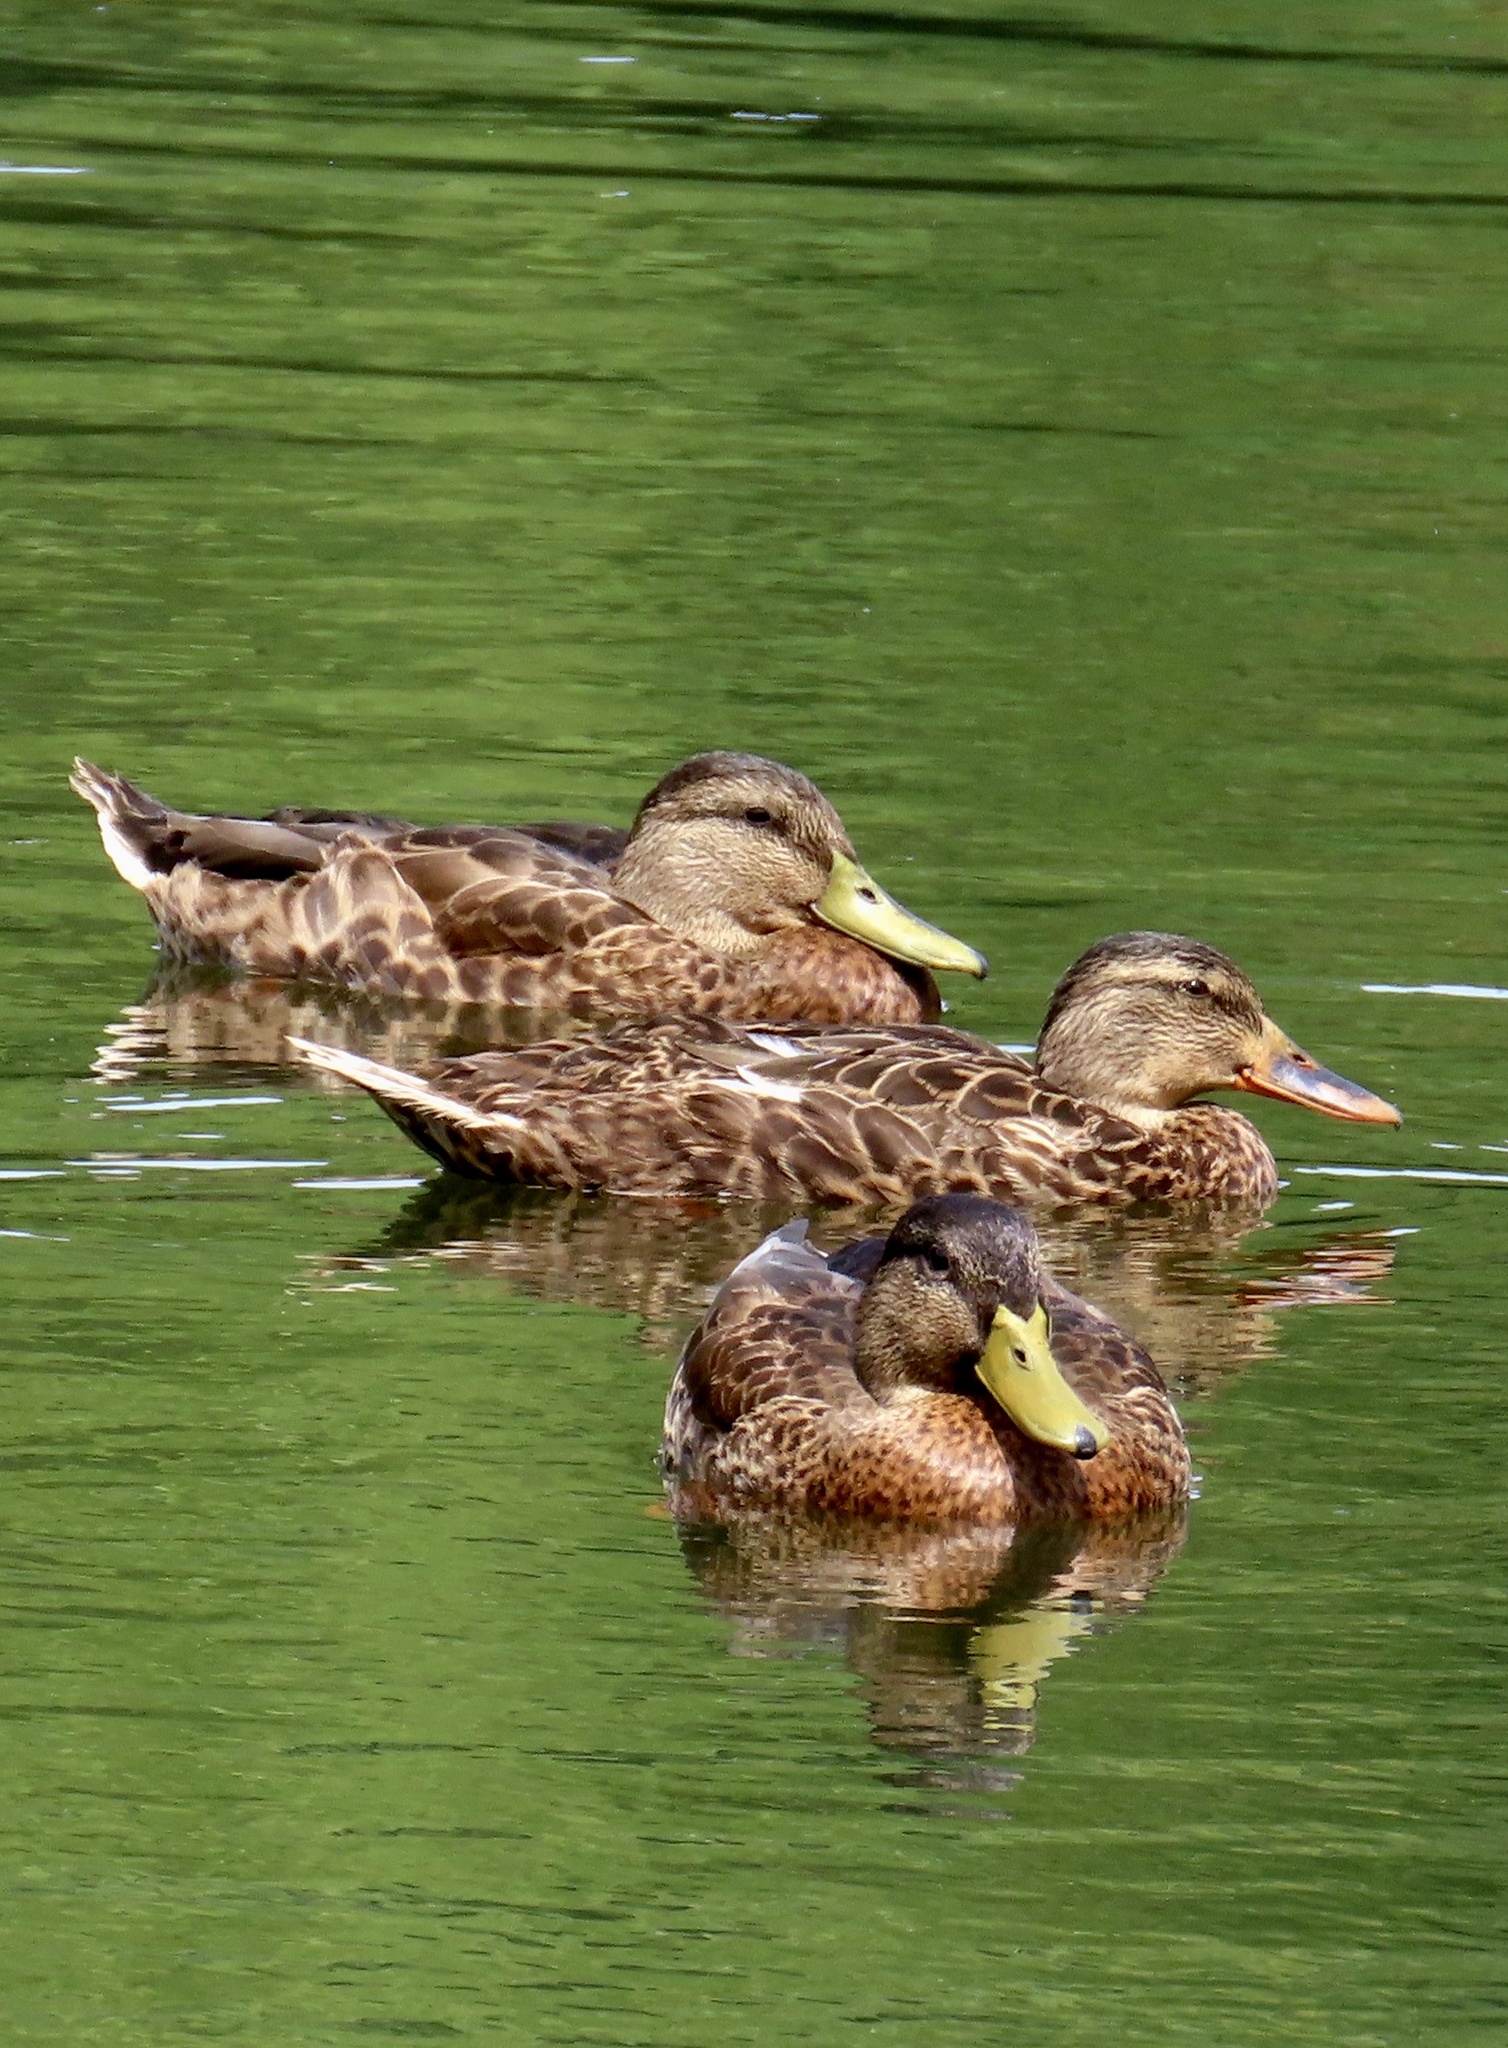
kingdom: Animalia
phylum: Chordata
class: Aves
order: Anseriformes
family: Anatidae
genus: Anas
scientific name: Anas platyrhynchos
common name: Mallard
